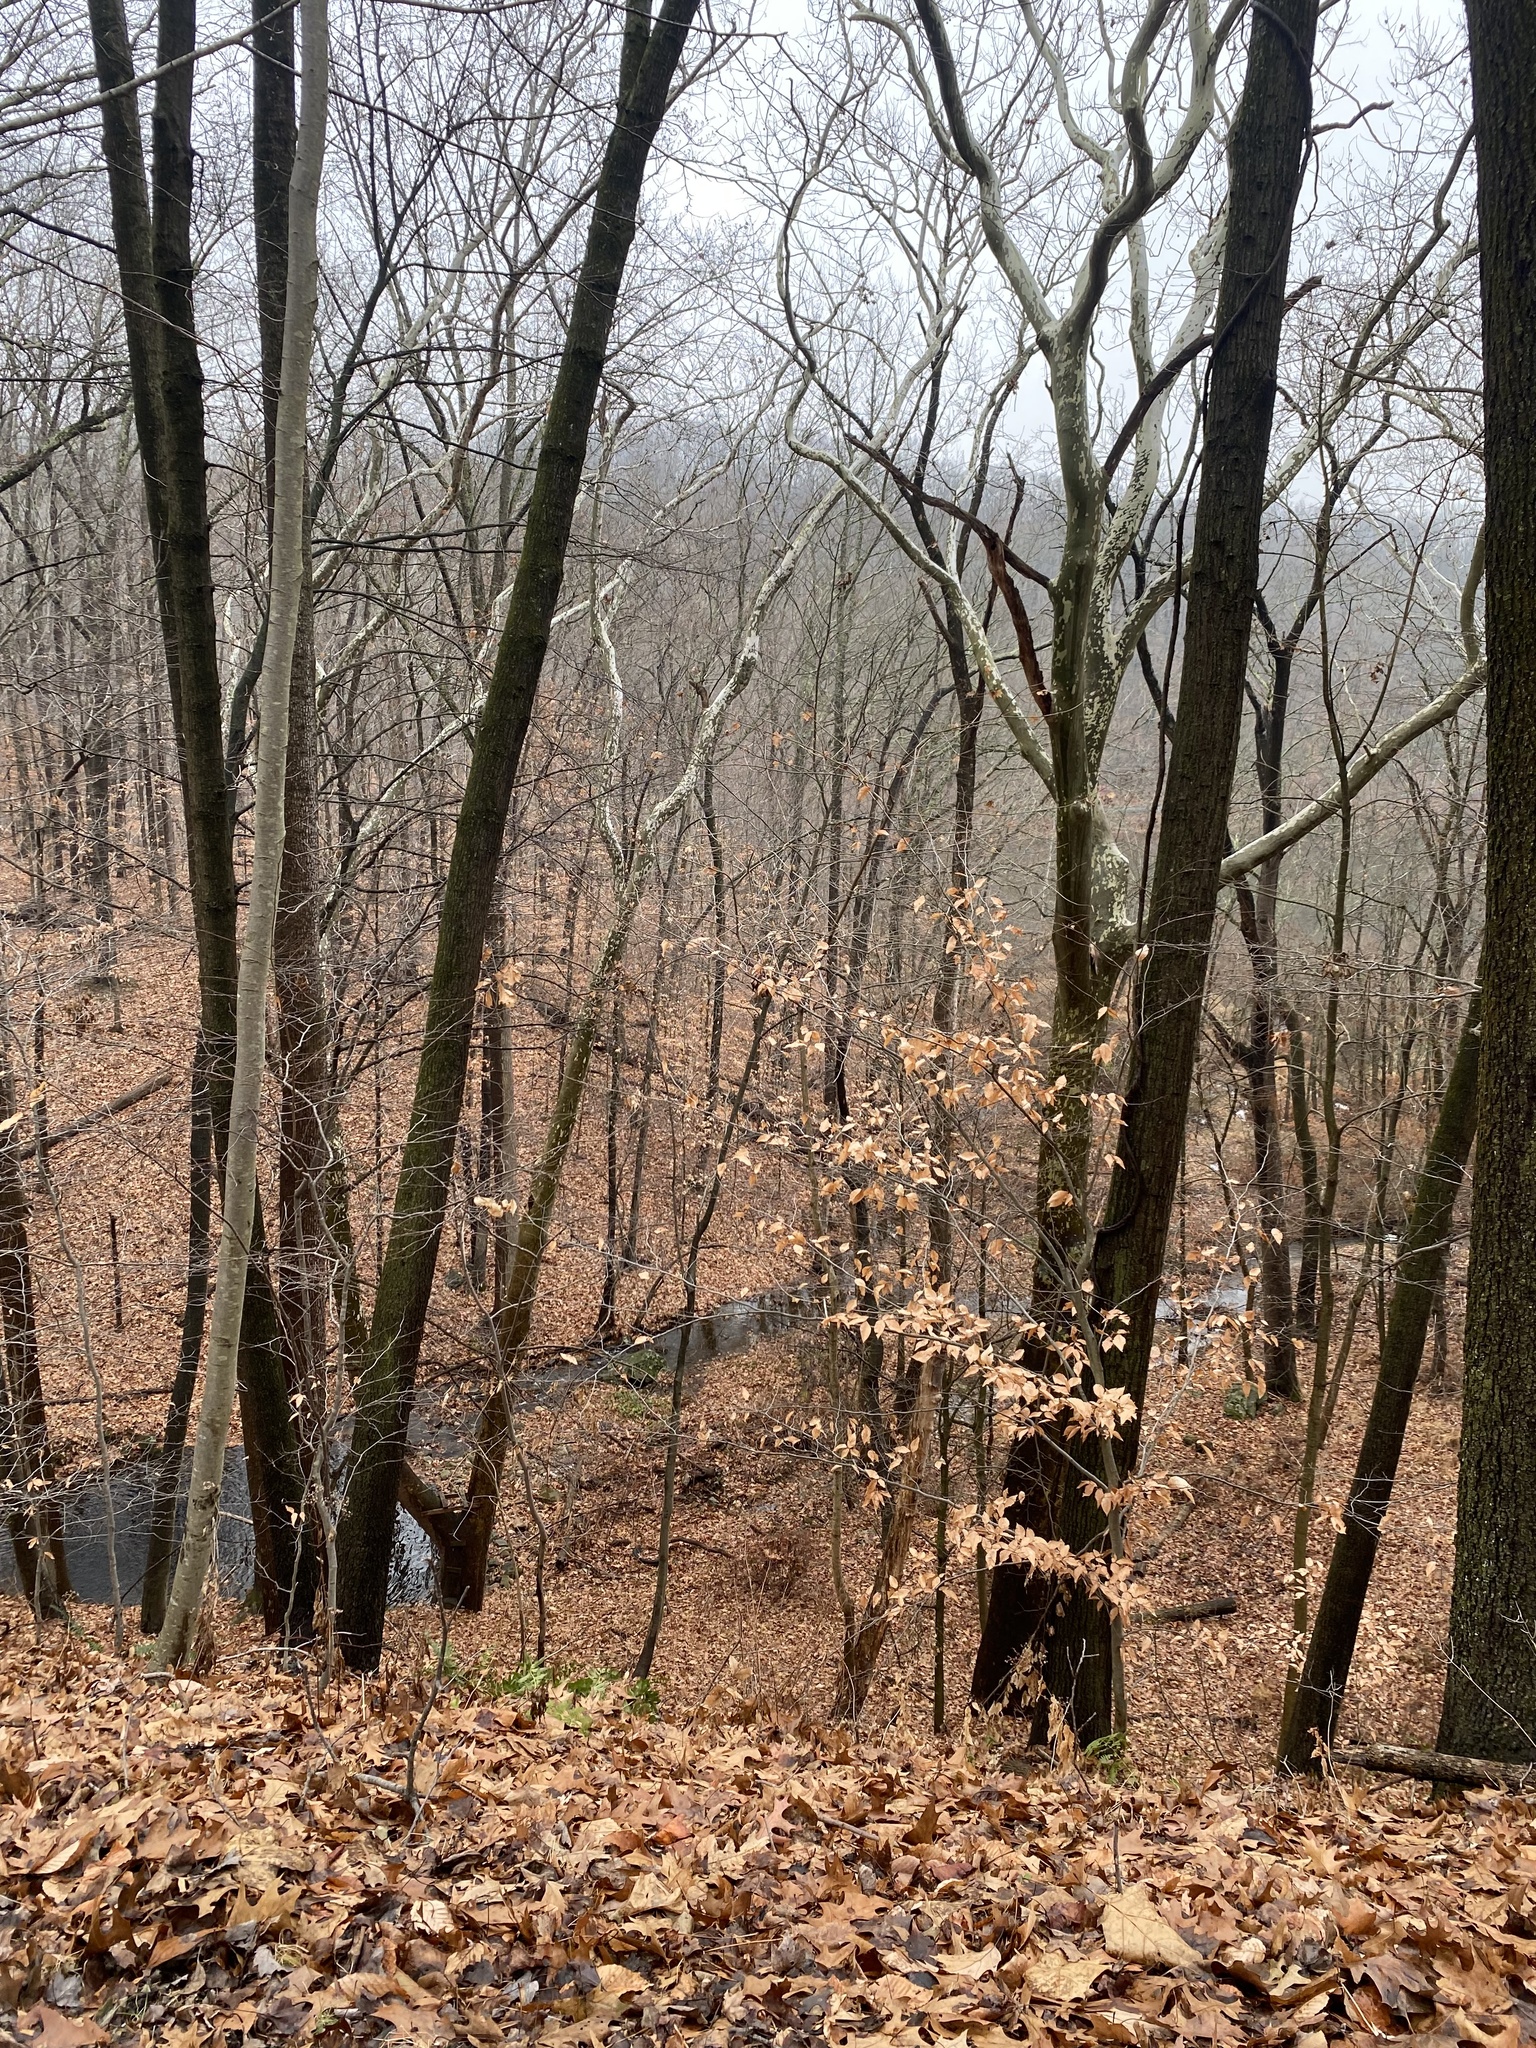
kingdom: Plantae
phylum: Tracheophyta
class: Magnoliopsida
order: Fagales
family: Fagaceae
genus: Fagus
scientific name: Fagus grandifolia
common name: American beech
